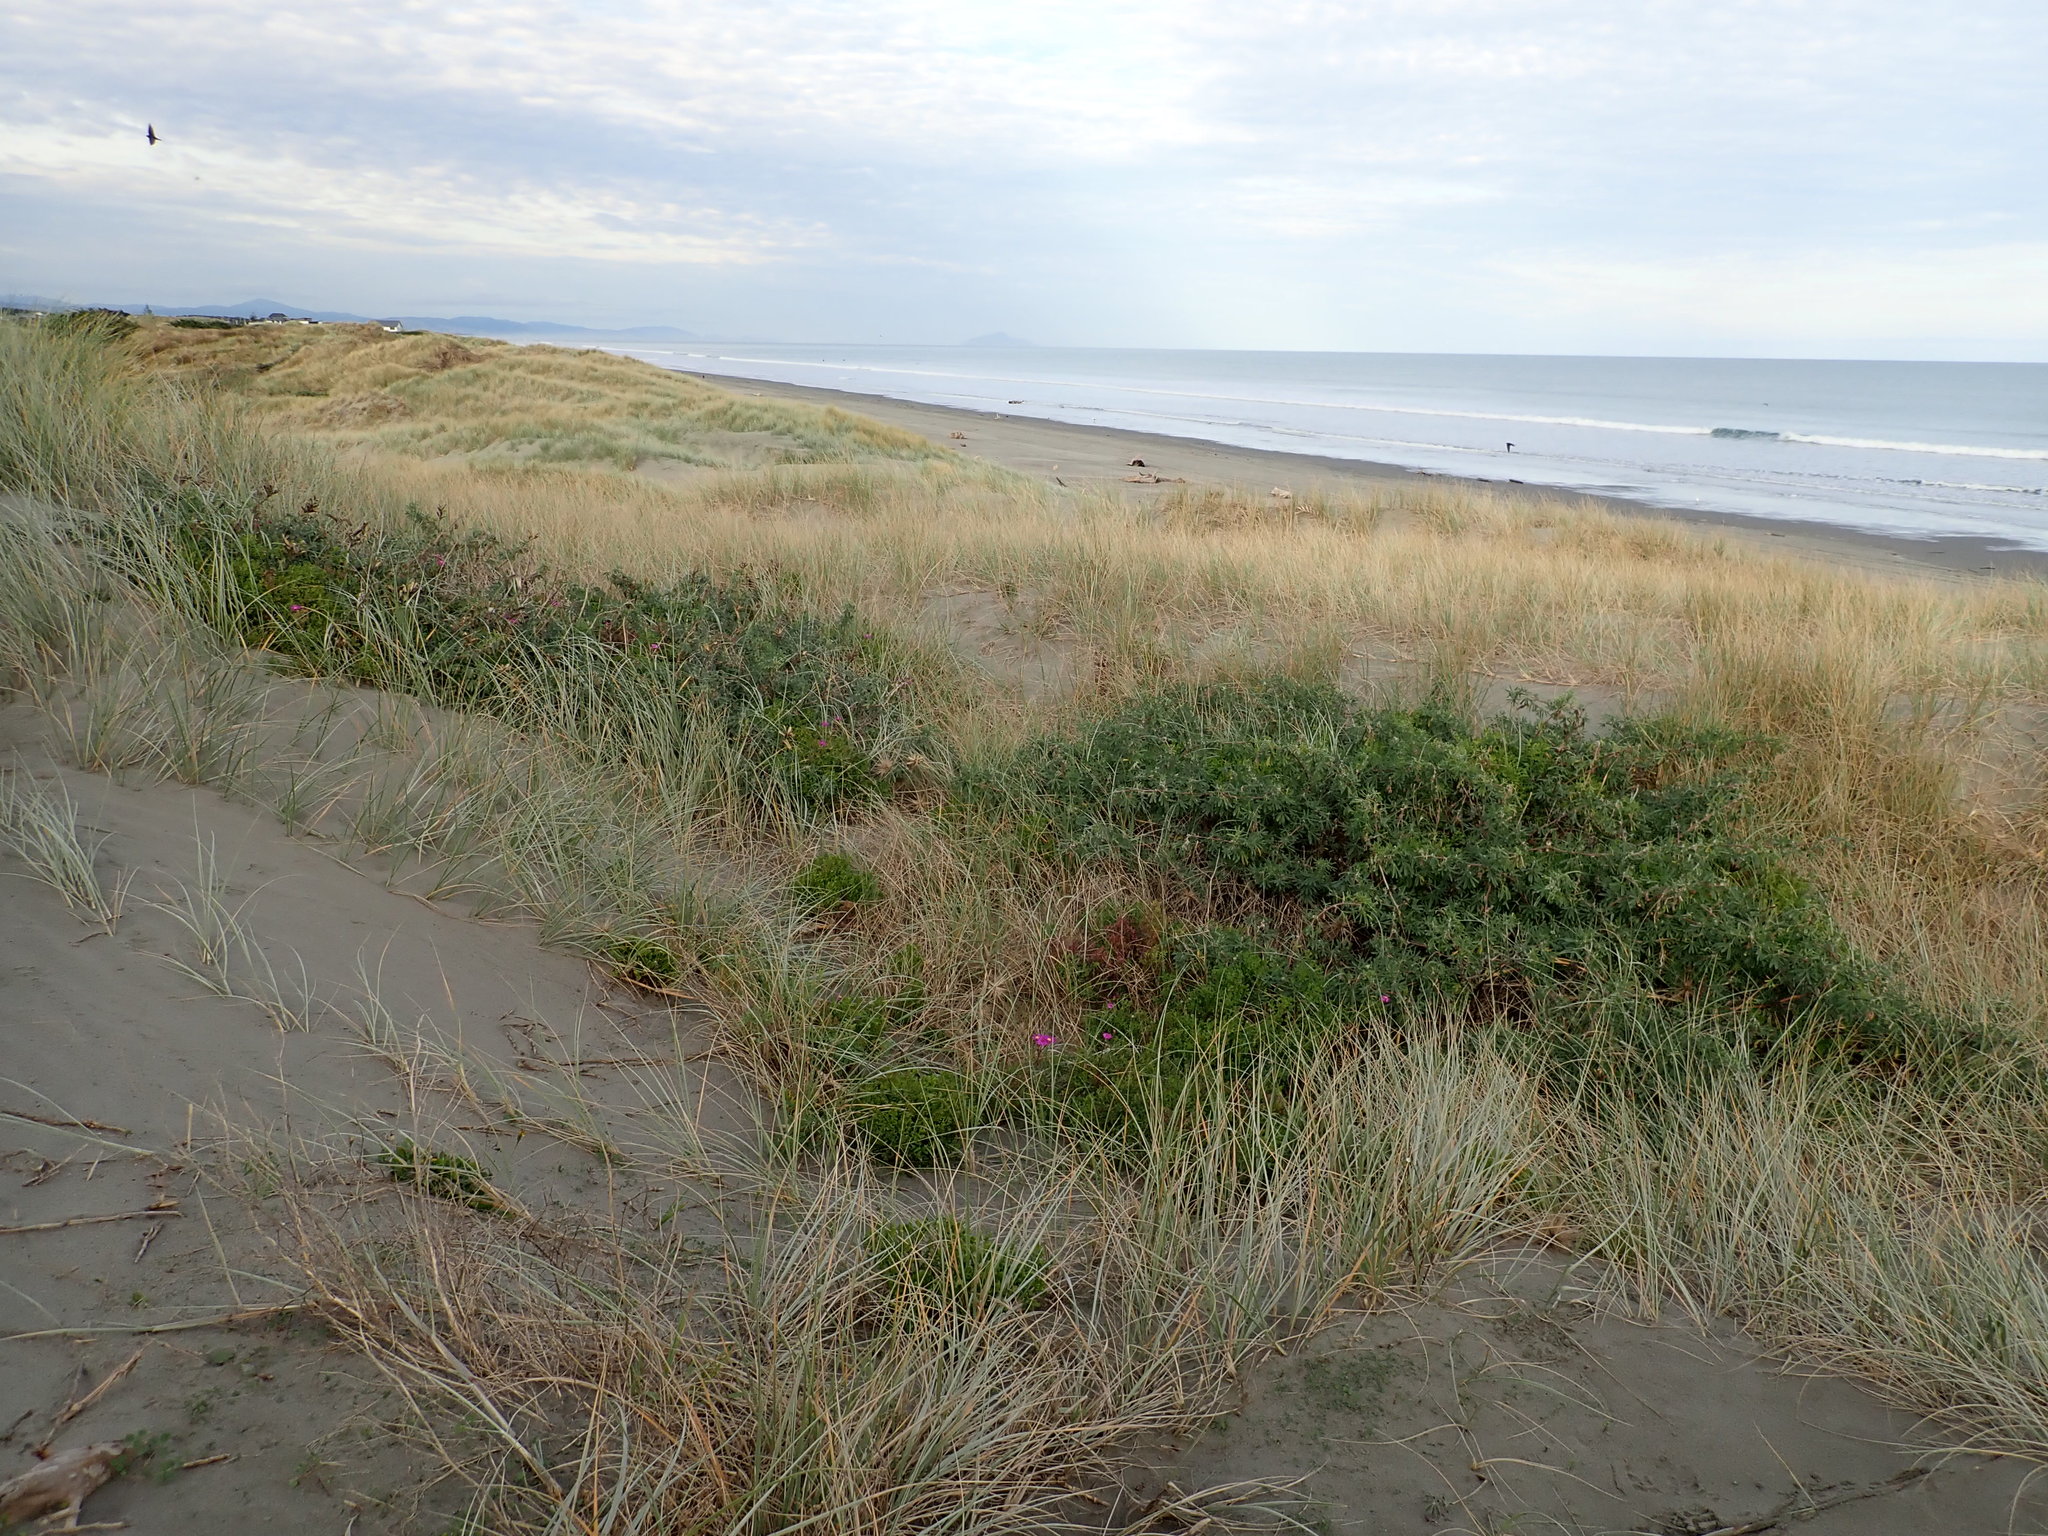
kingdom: Plantae
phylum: Tracheophyta
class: Magnoliopsida
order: Fabales
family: Fabaceae
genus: Lupinus
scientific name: Lupinus arboreus
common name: Yellow bush lupine
